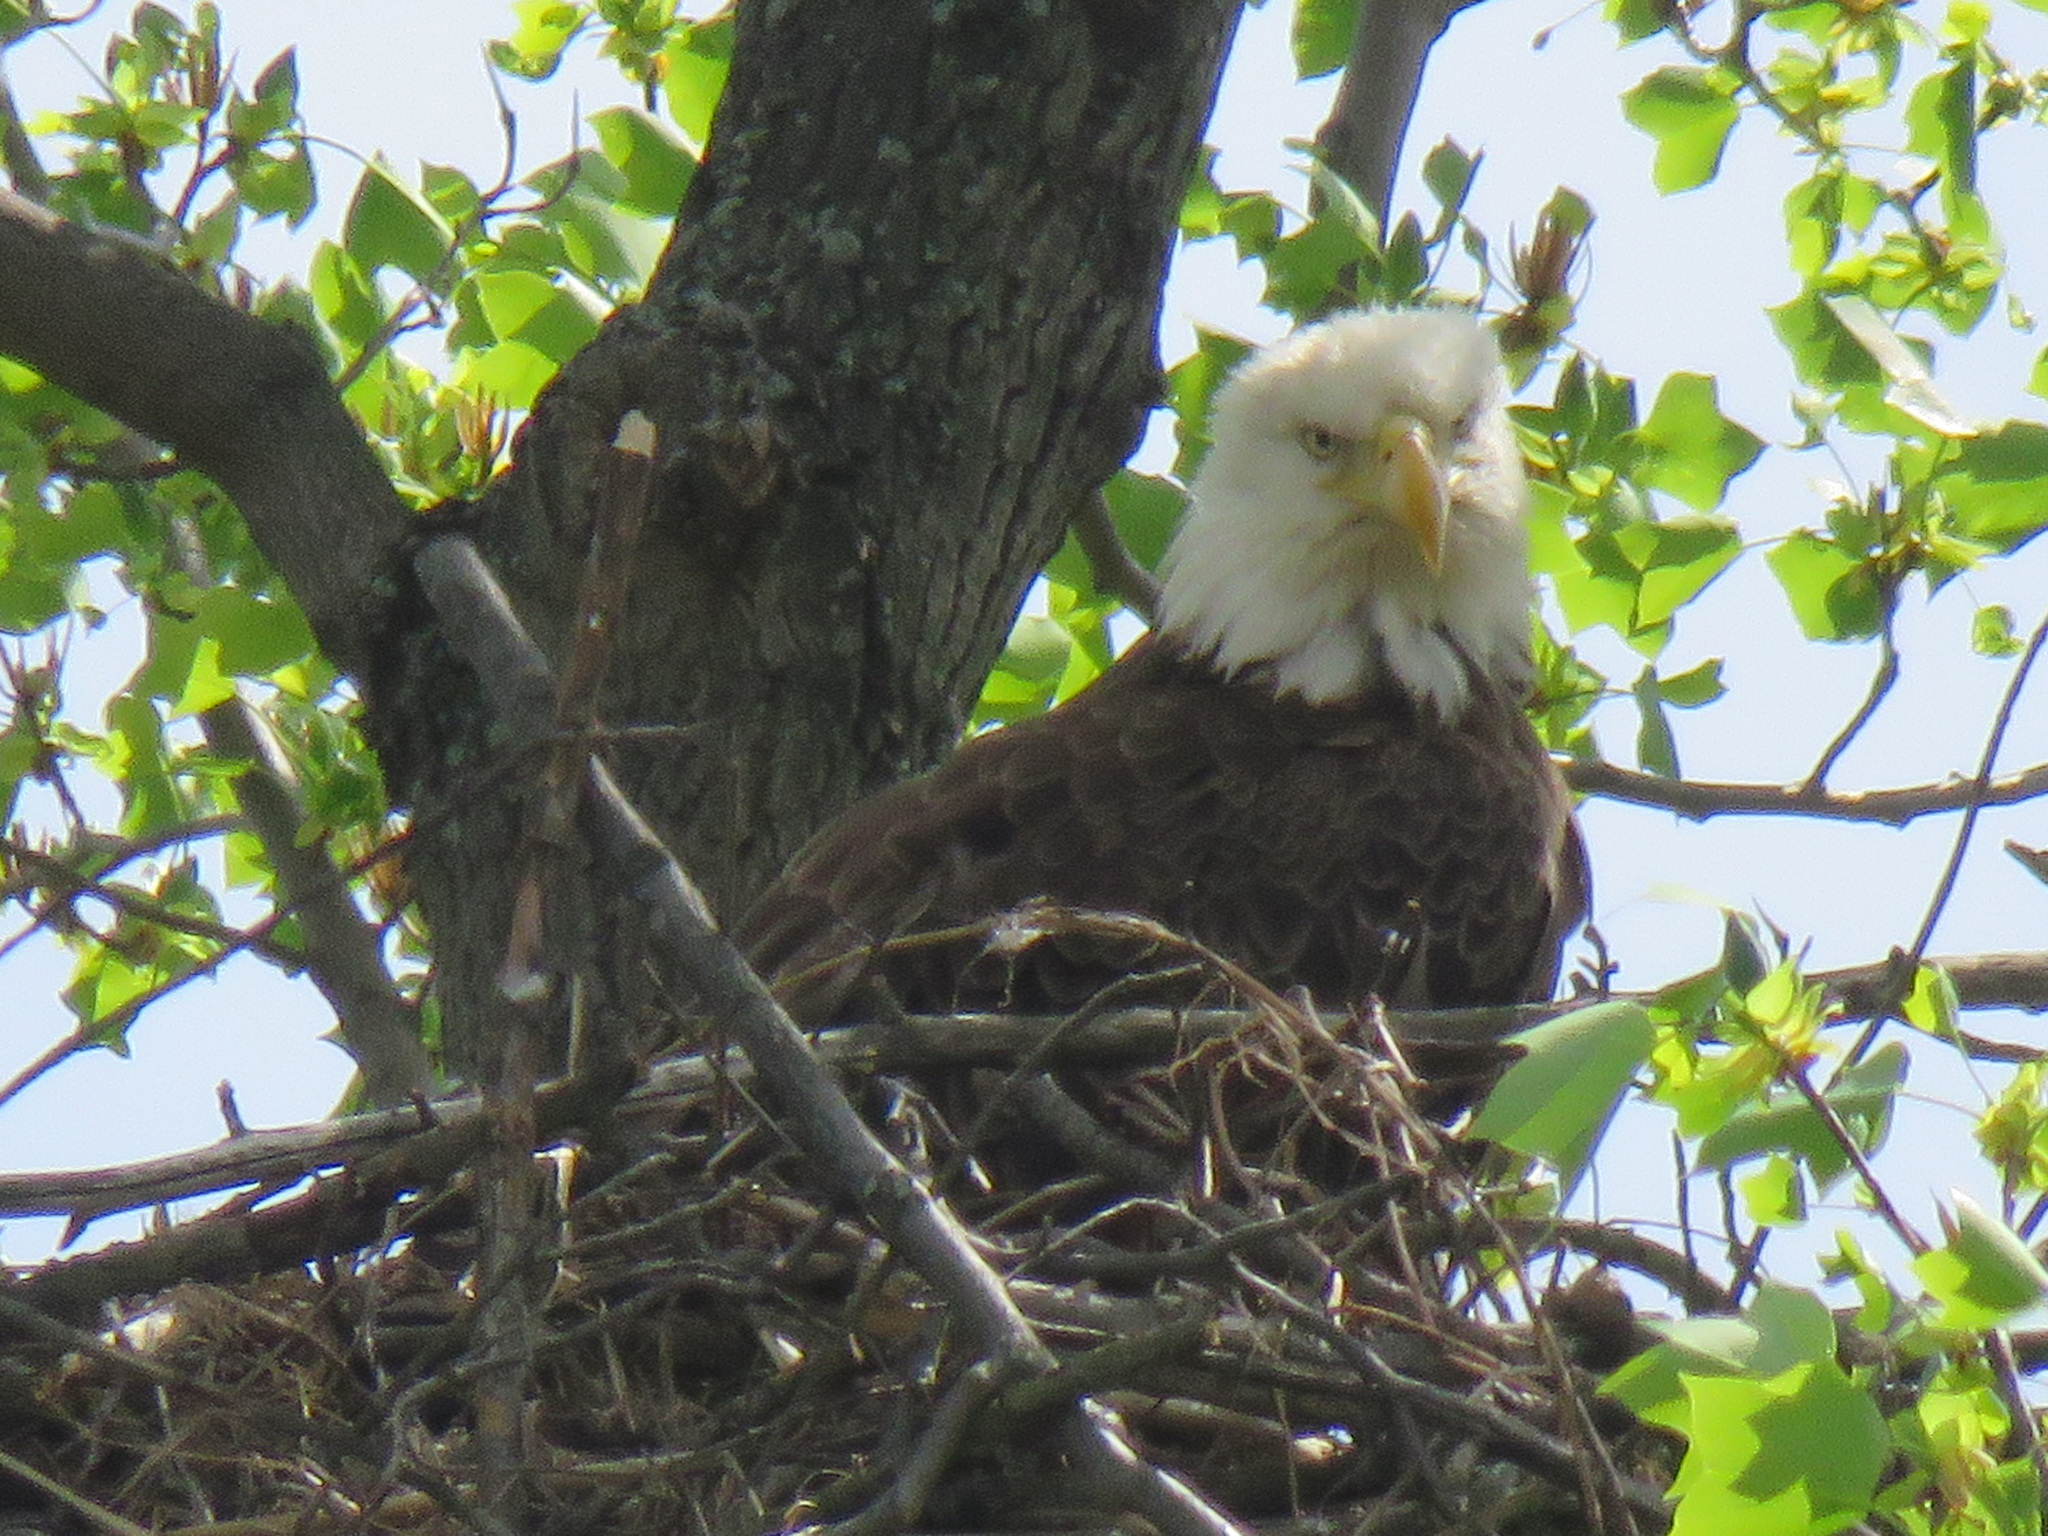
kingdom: Animalia
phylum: Chordata
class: Aves
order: Accipitriformes
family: Accipitridae
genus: Haliaeetus
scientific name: Haliaeetus leucocephalus
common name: Bald eagle
